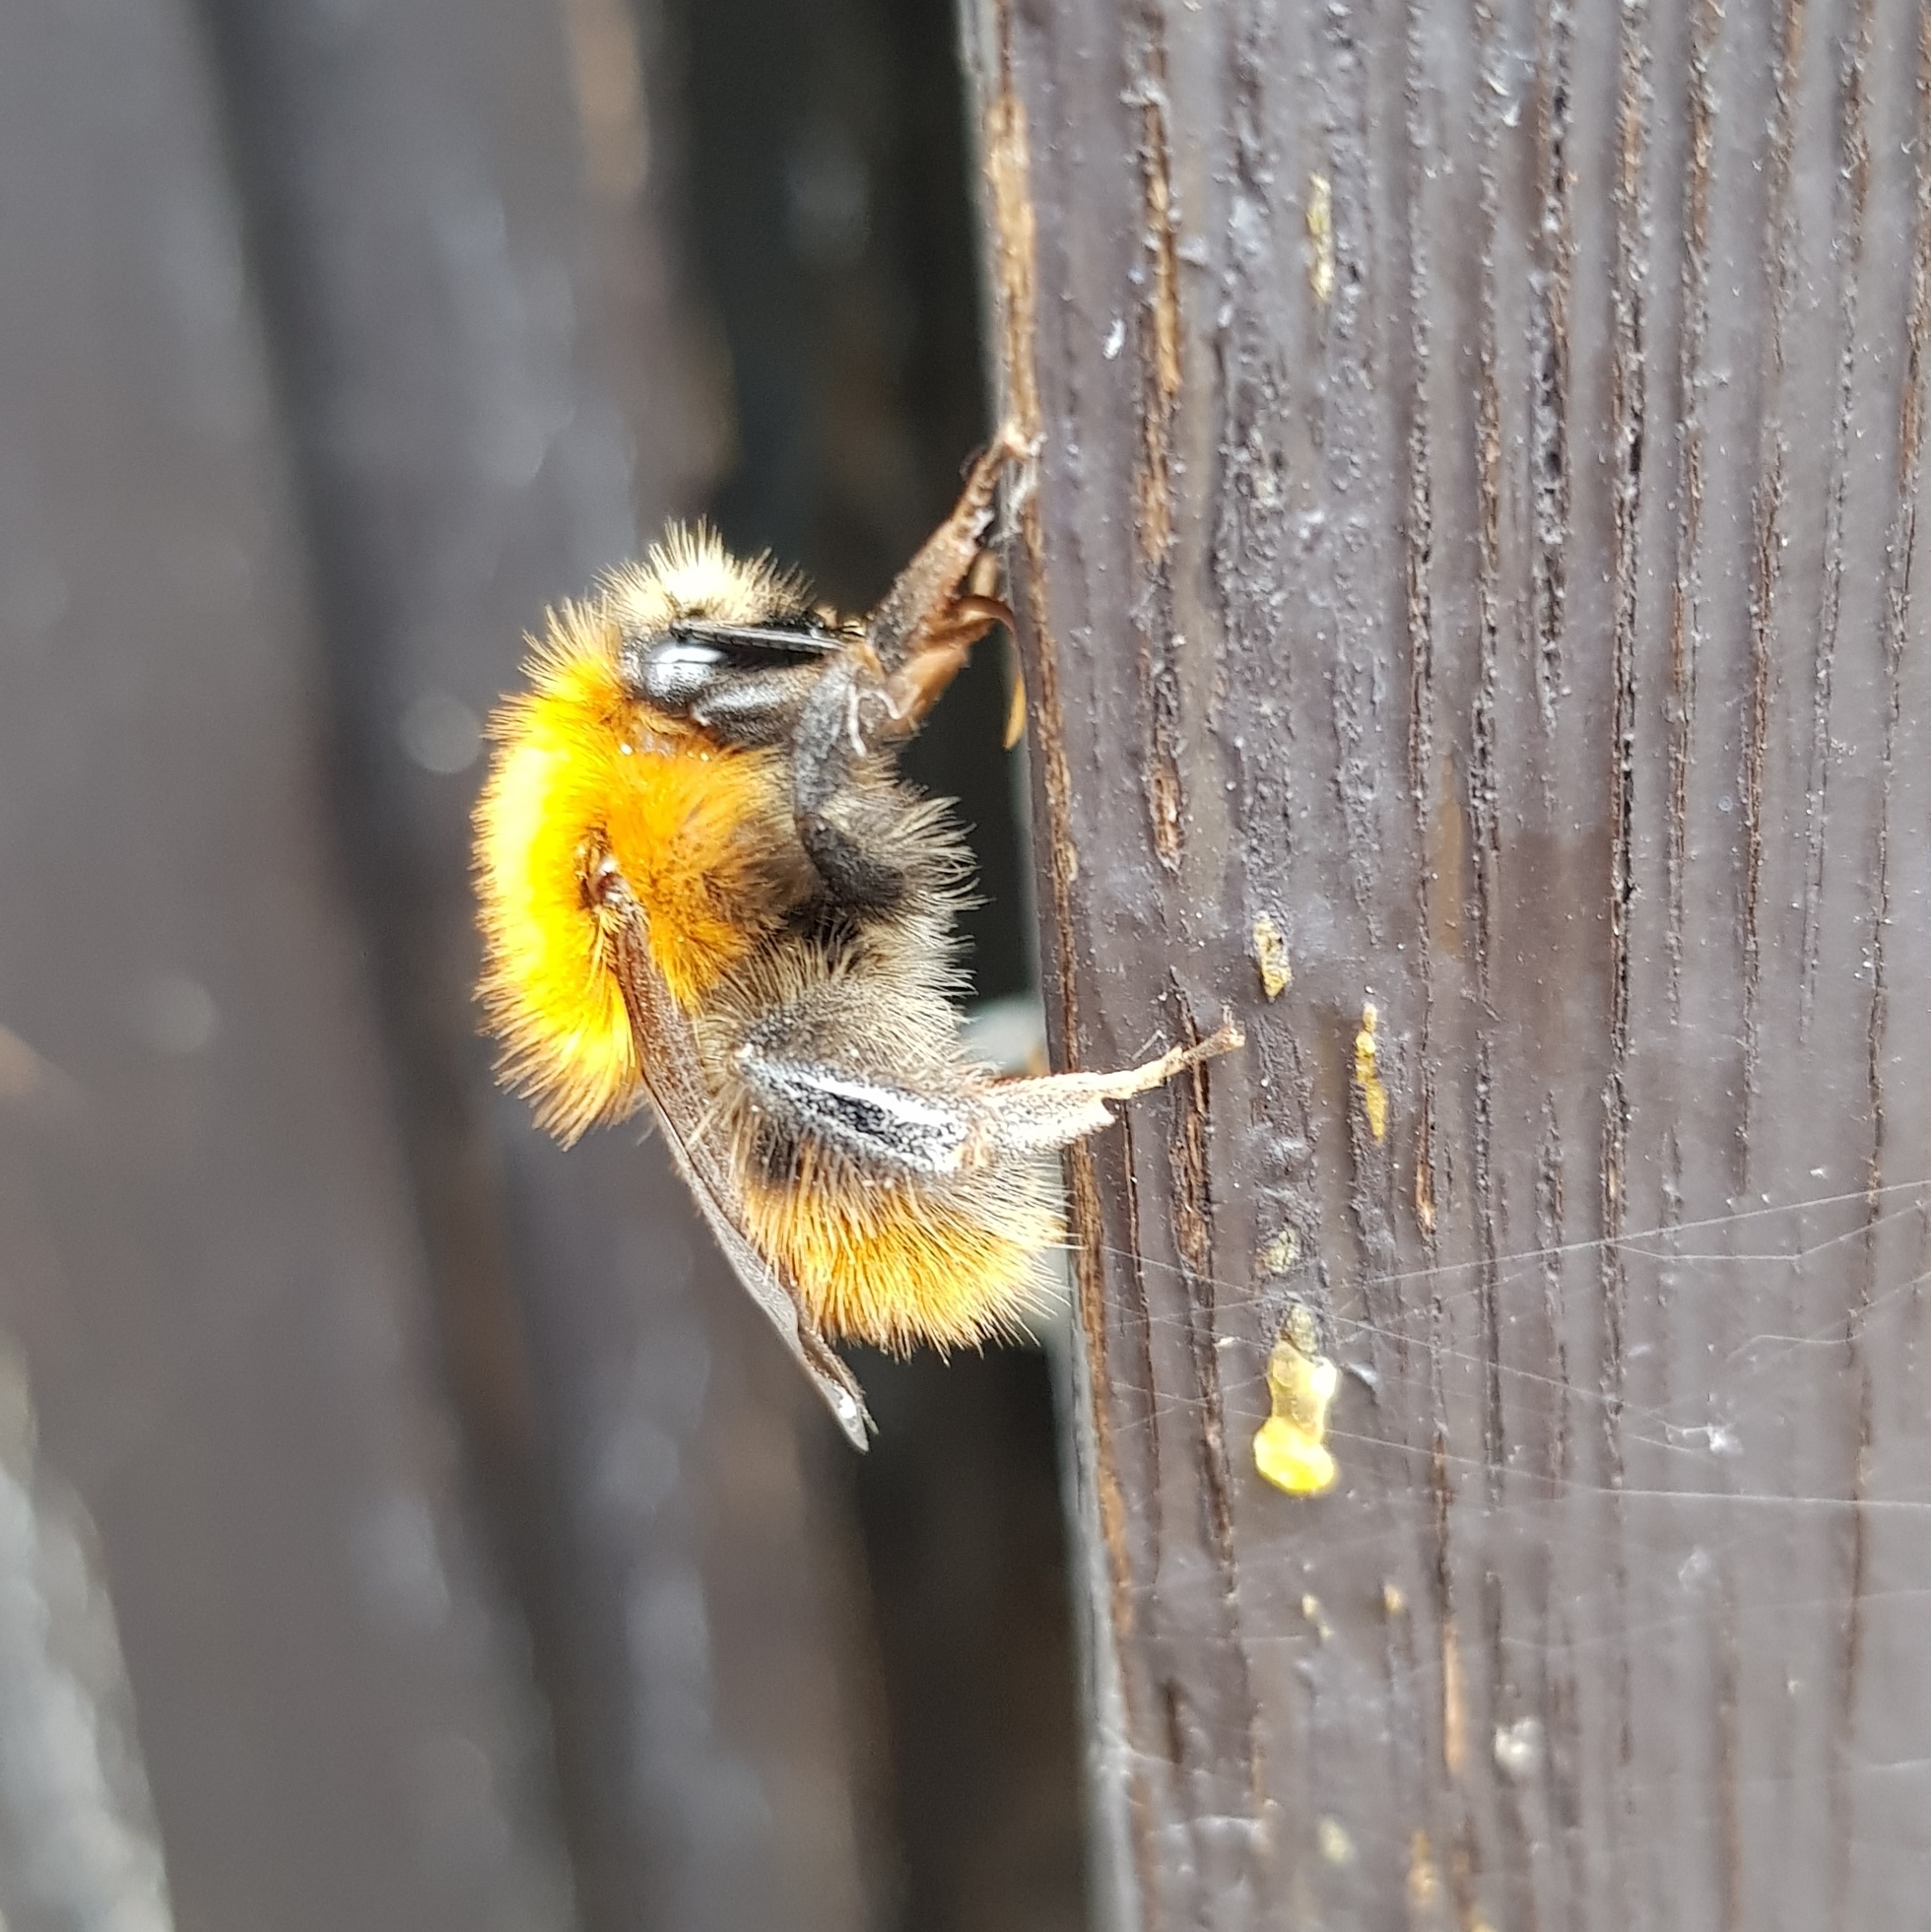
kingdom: Animalia
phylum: Arthropoda
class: Insecta
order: Hymenoptera
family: Apidae
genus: Bombus
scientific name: Bombus pascuorum
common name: Common carder bee
